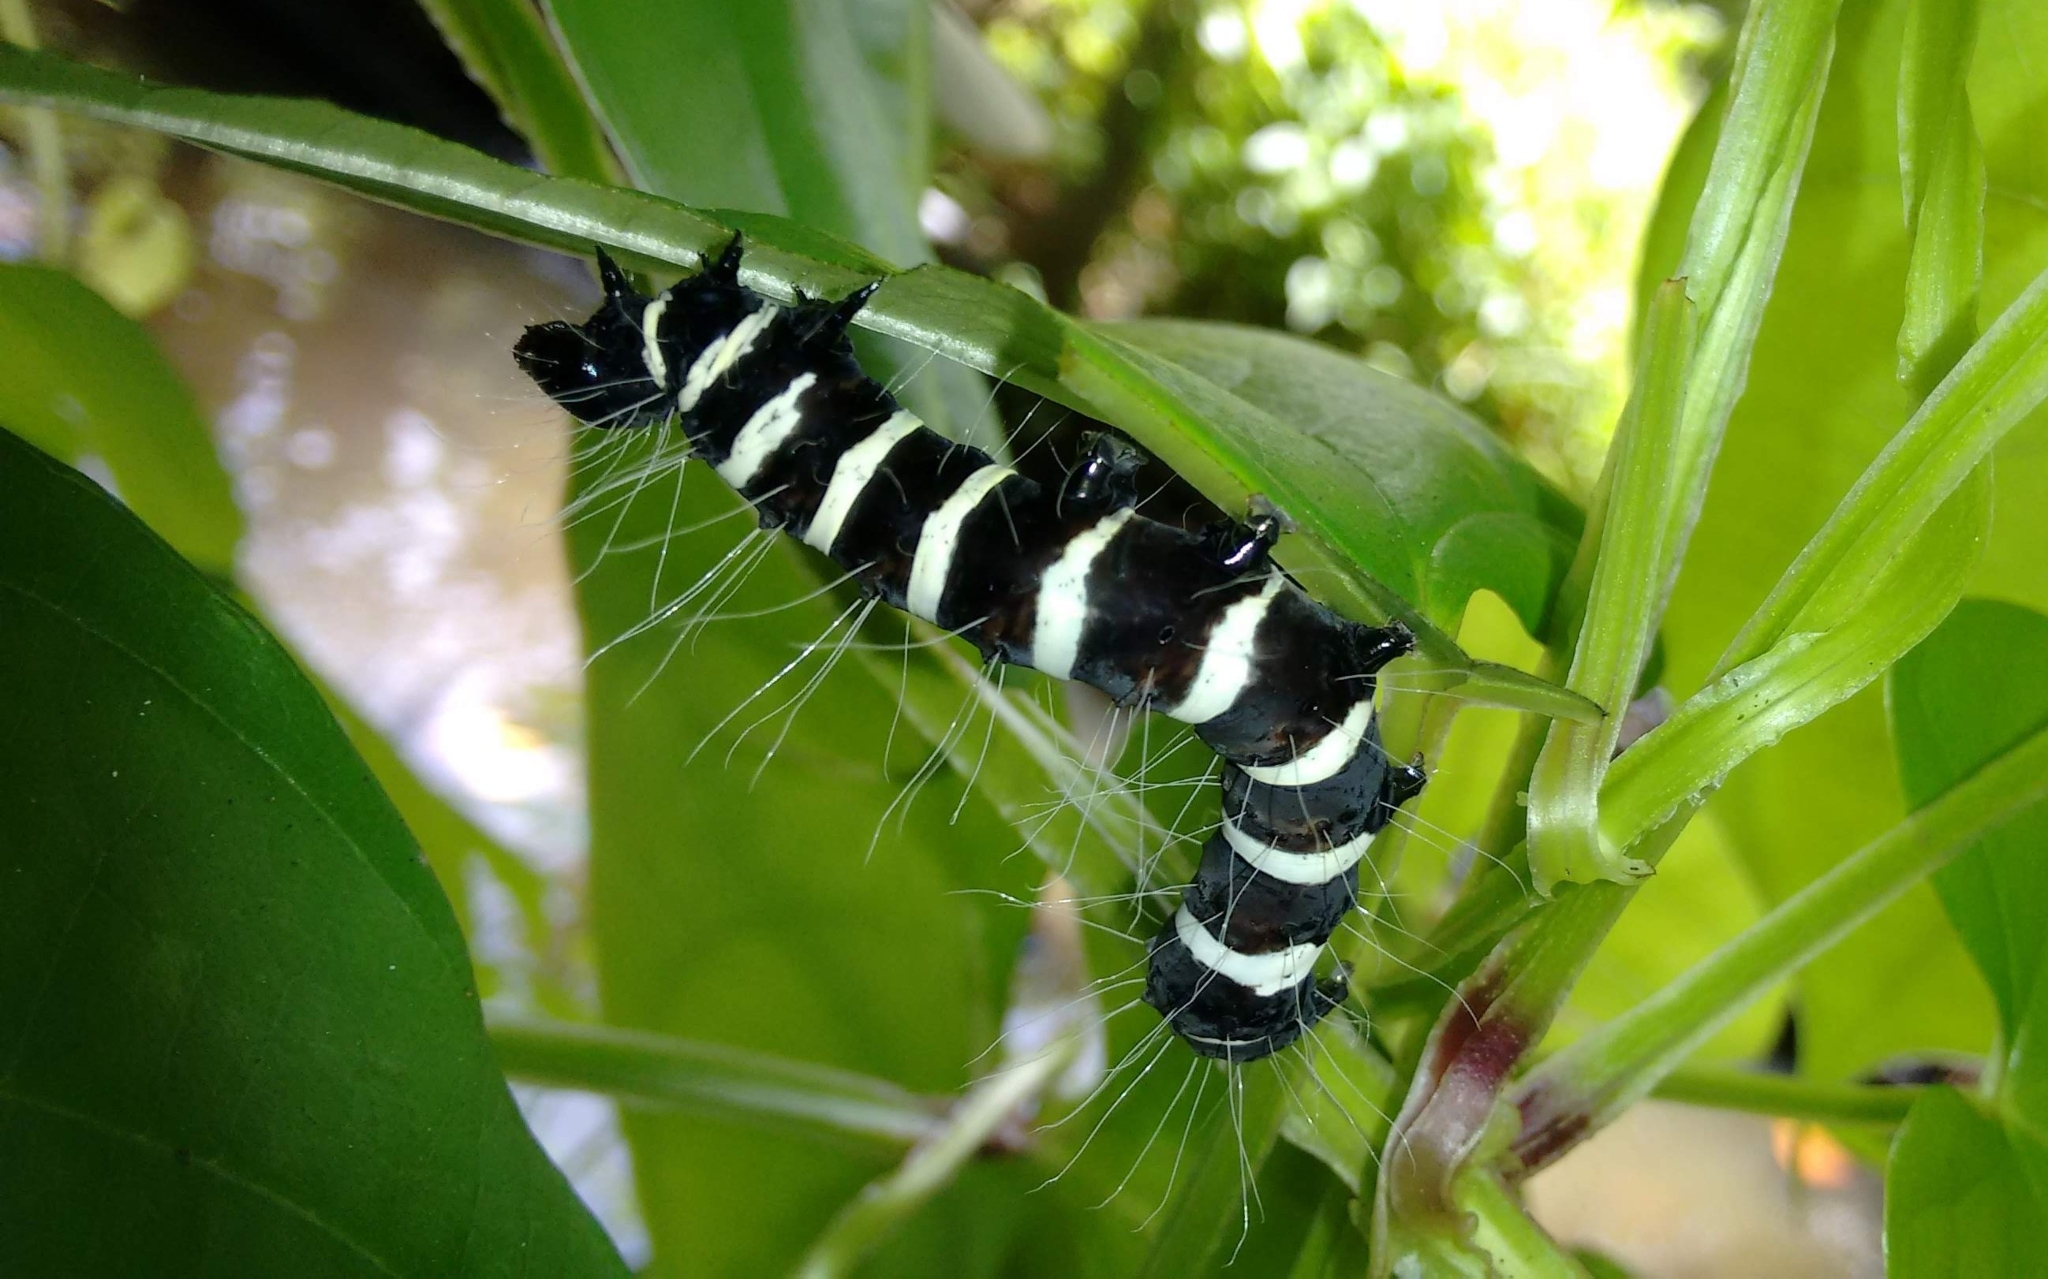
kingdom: Animalia
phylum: Arthropoda
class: Insecta
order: Lepidoptera
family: Noctuidae
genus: Episteme
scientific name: Episteme maculatrix
